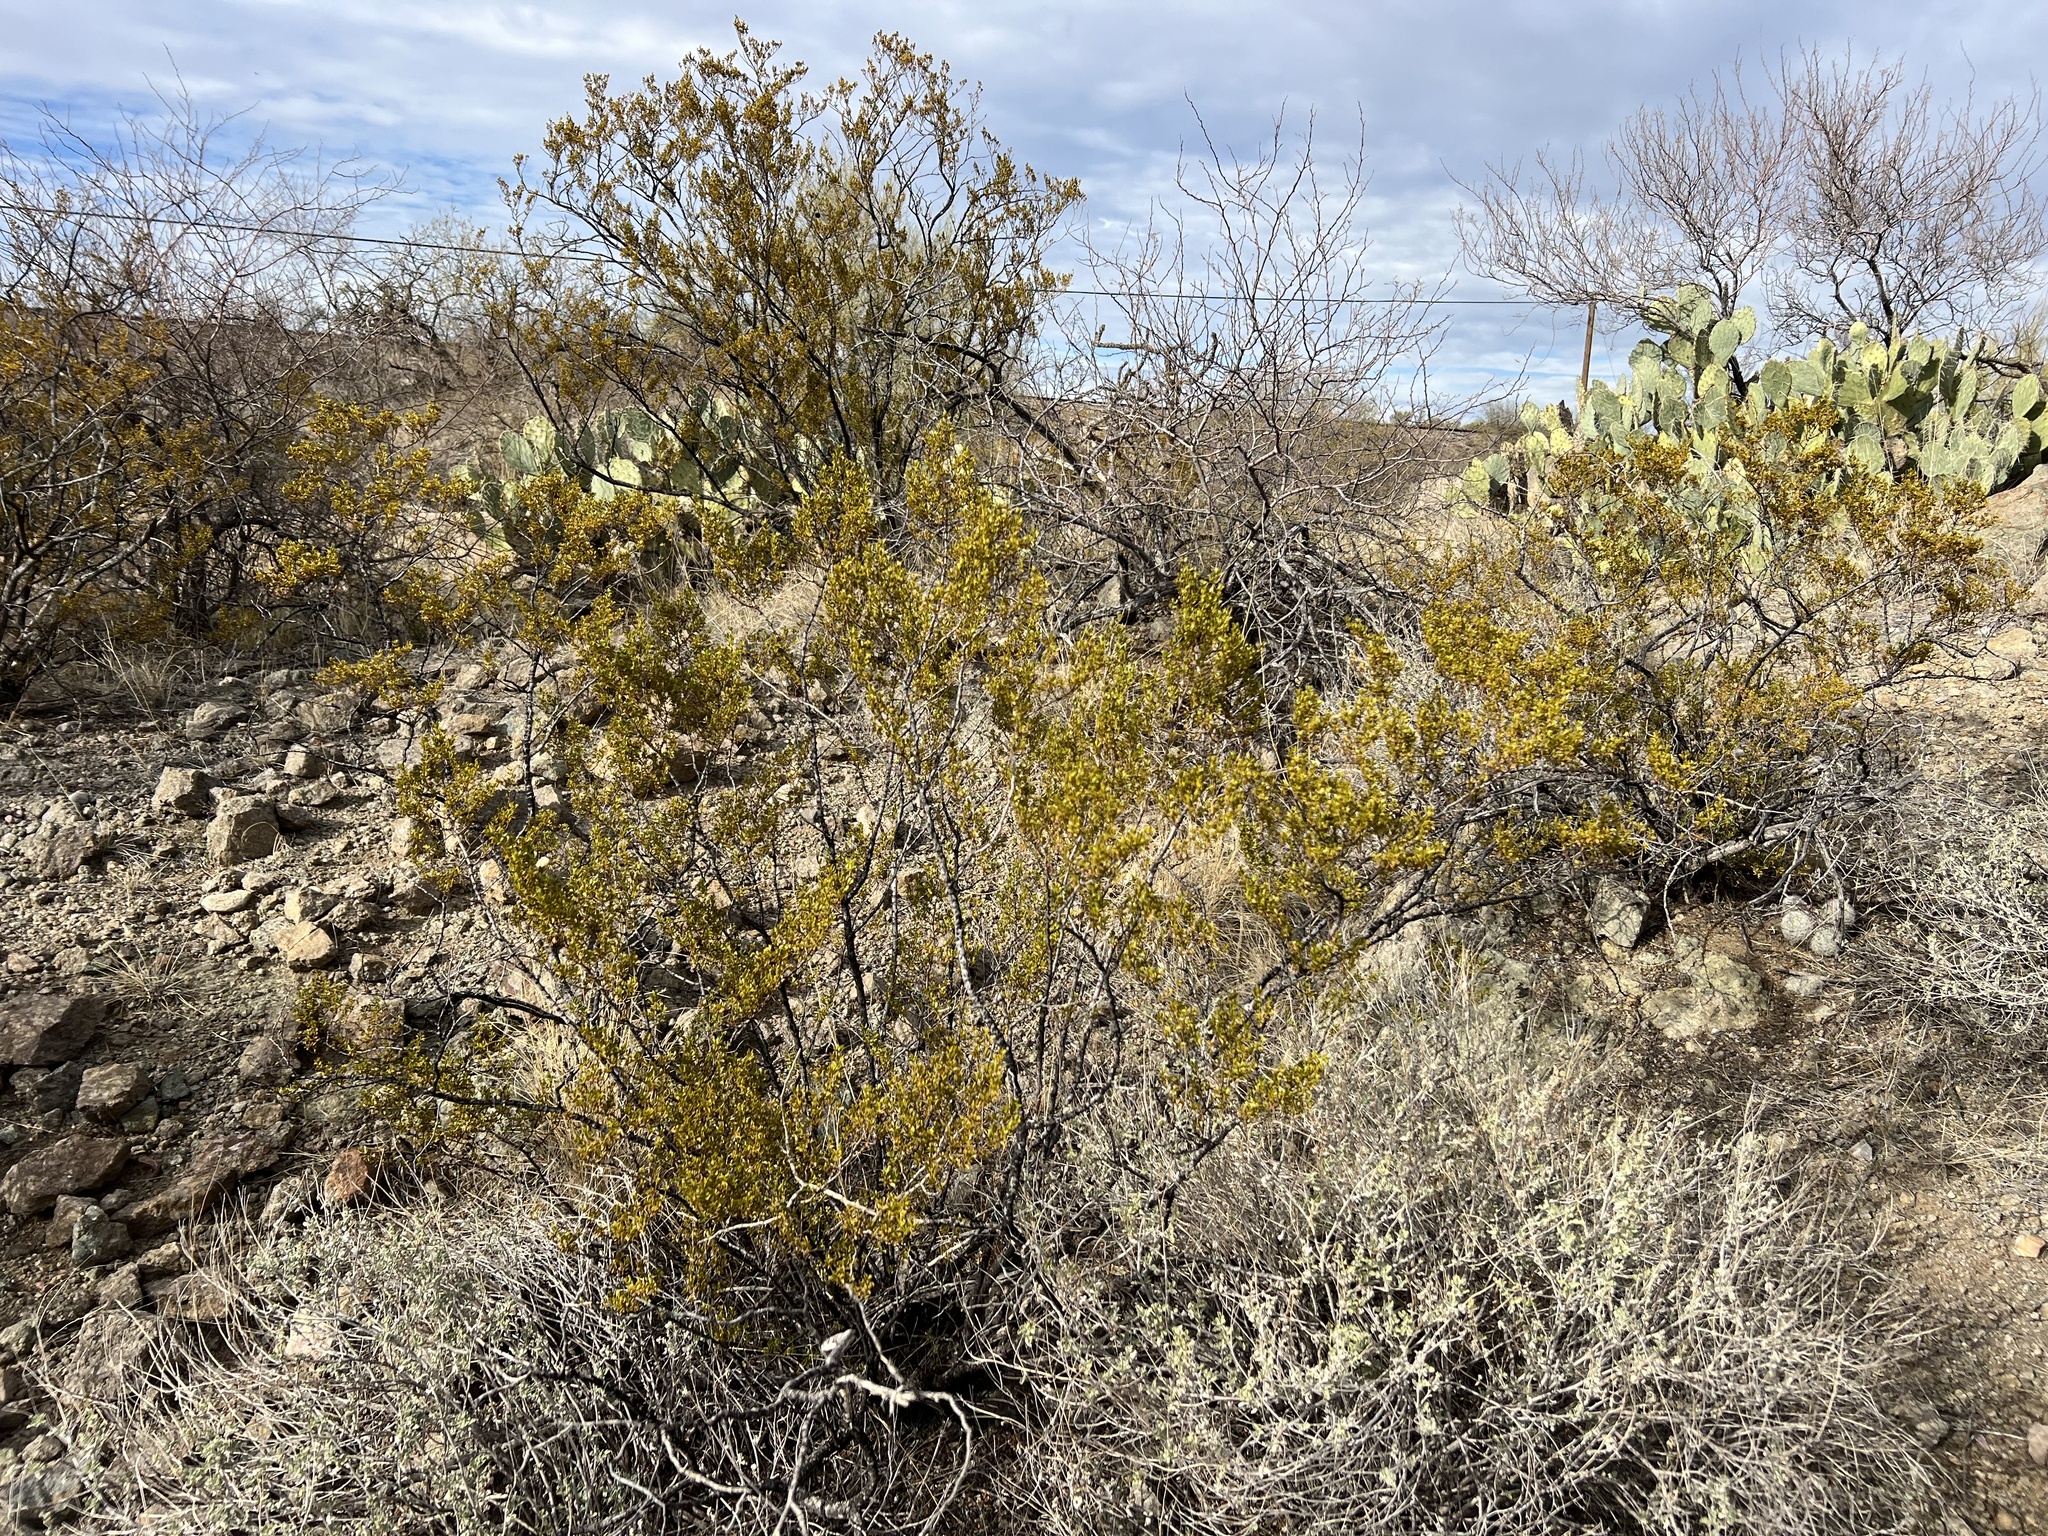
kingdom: Plantae
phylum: Tracheophyta
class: Magnoliopsida
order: Zygophyllales
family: Zygophyllaceae
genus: Larrea
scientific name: Larrea tridentata
